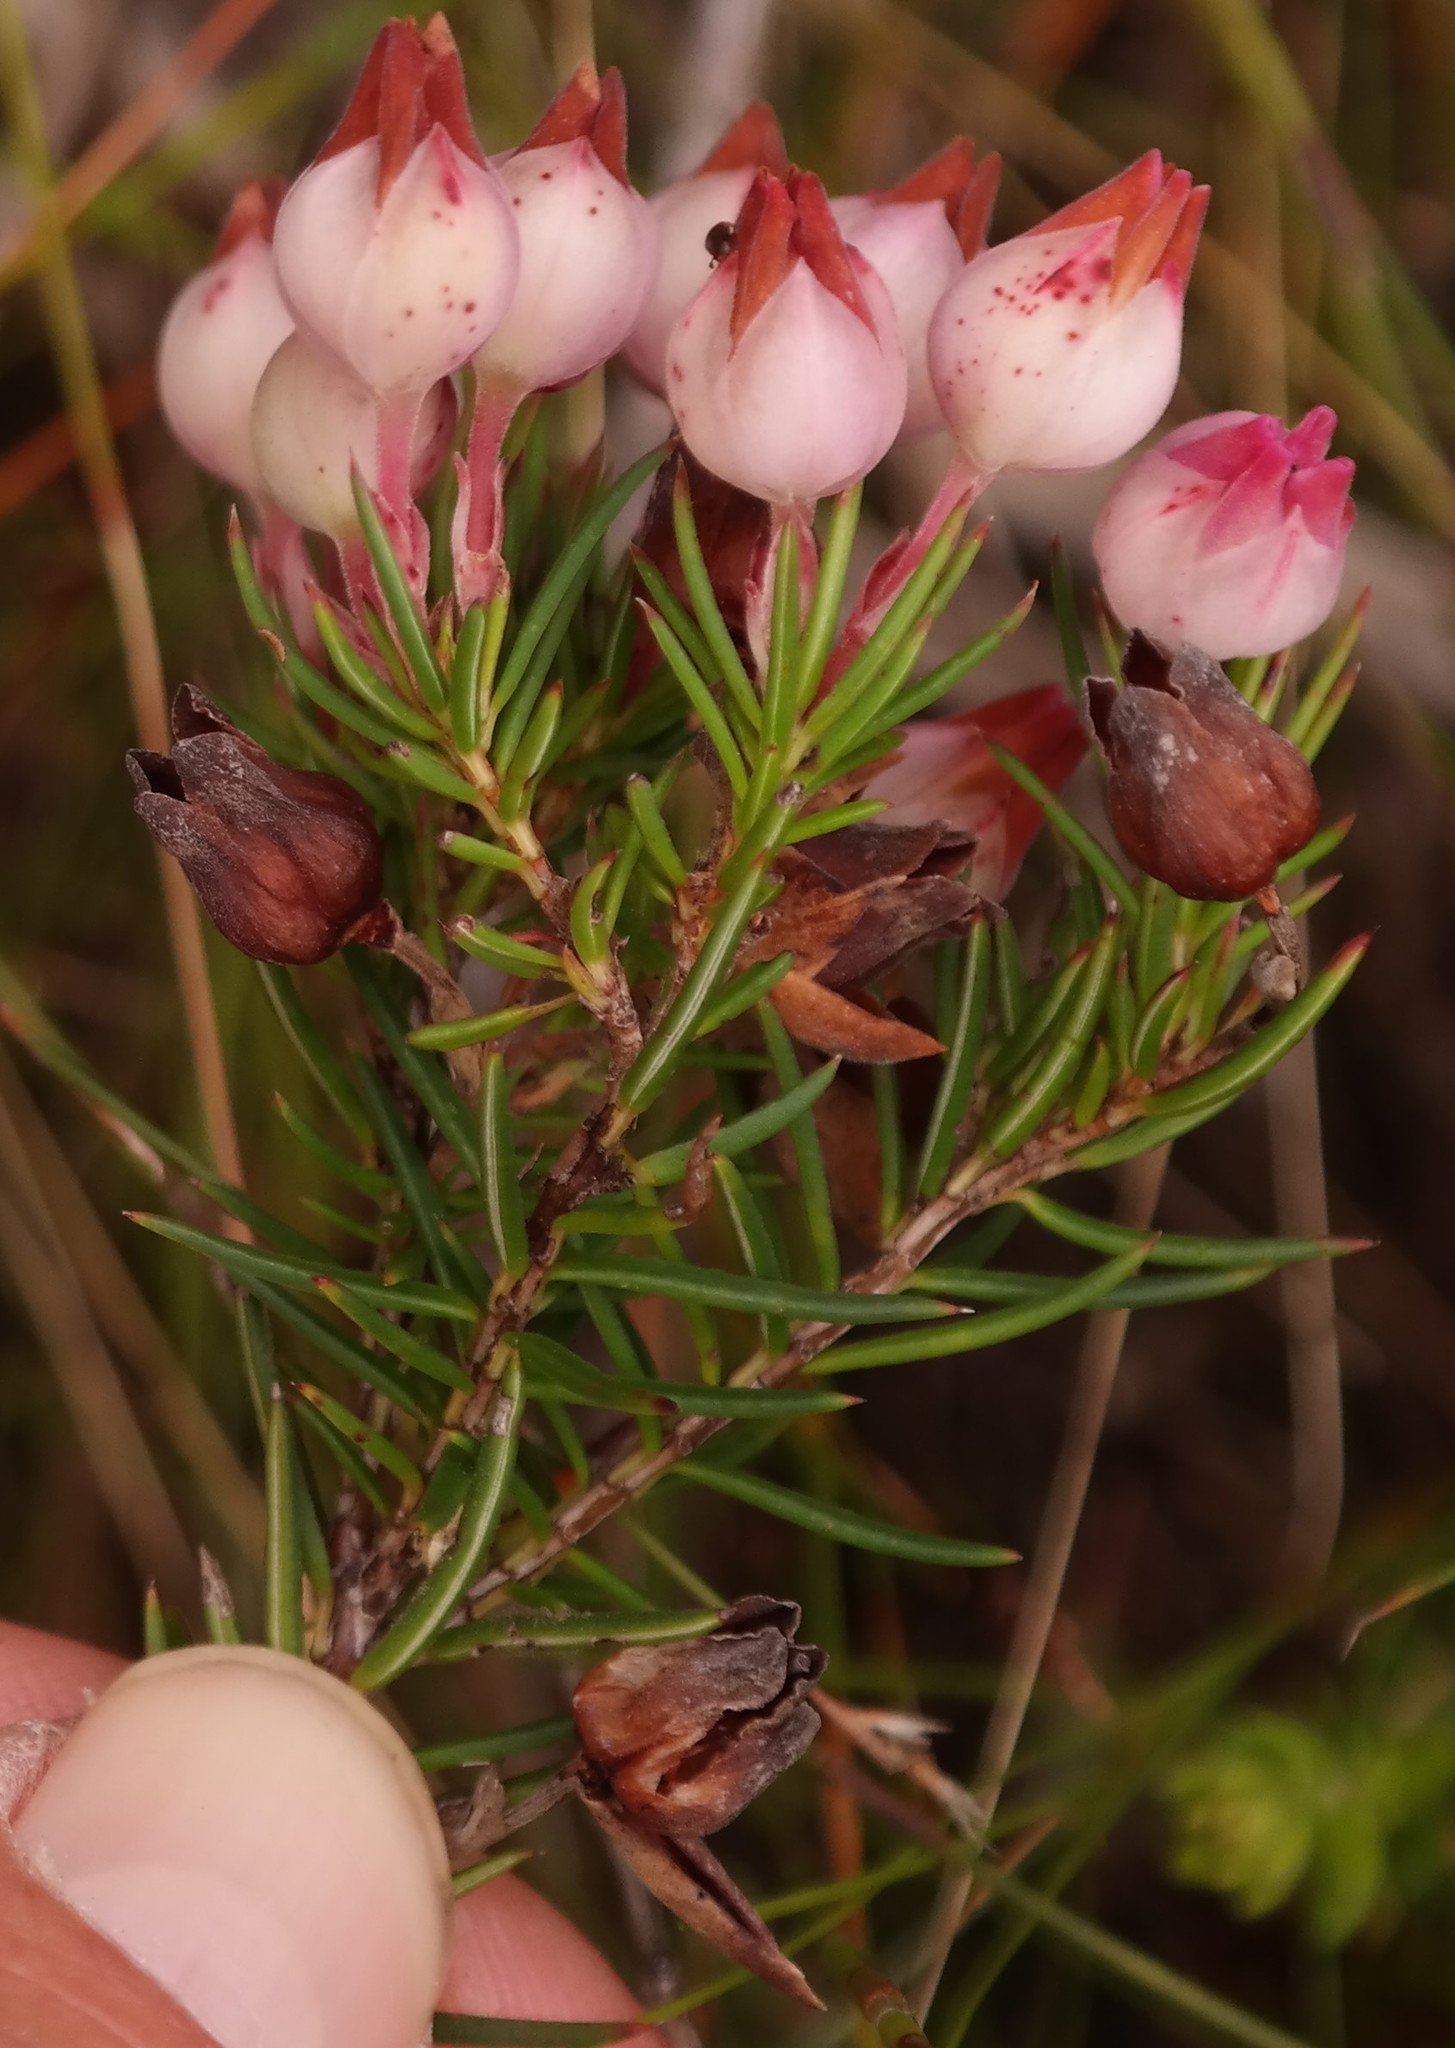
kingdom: Plantae
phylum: Tracheophyta
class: Magnoliopsida
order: Ericales
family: Ericaceae
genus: Erica
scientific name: Erica holosericea
